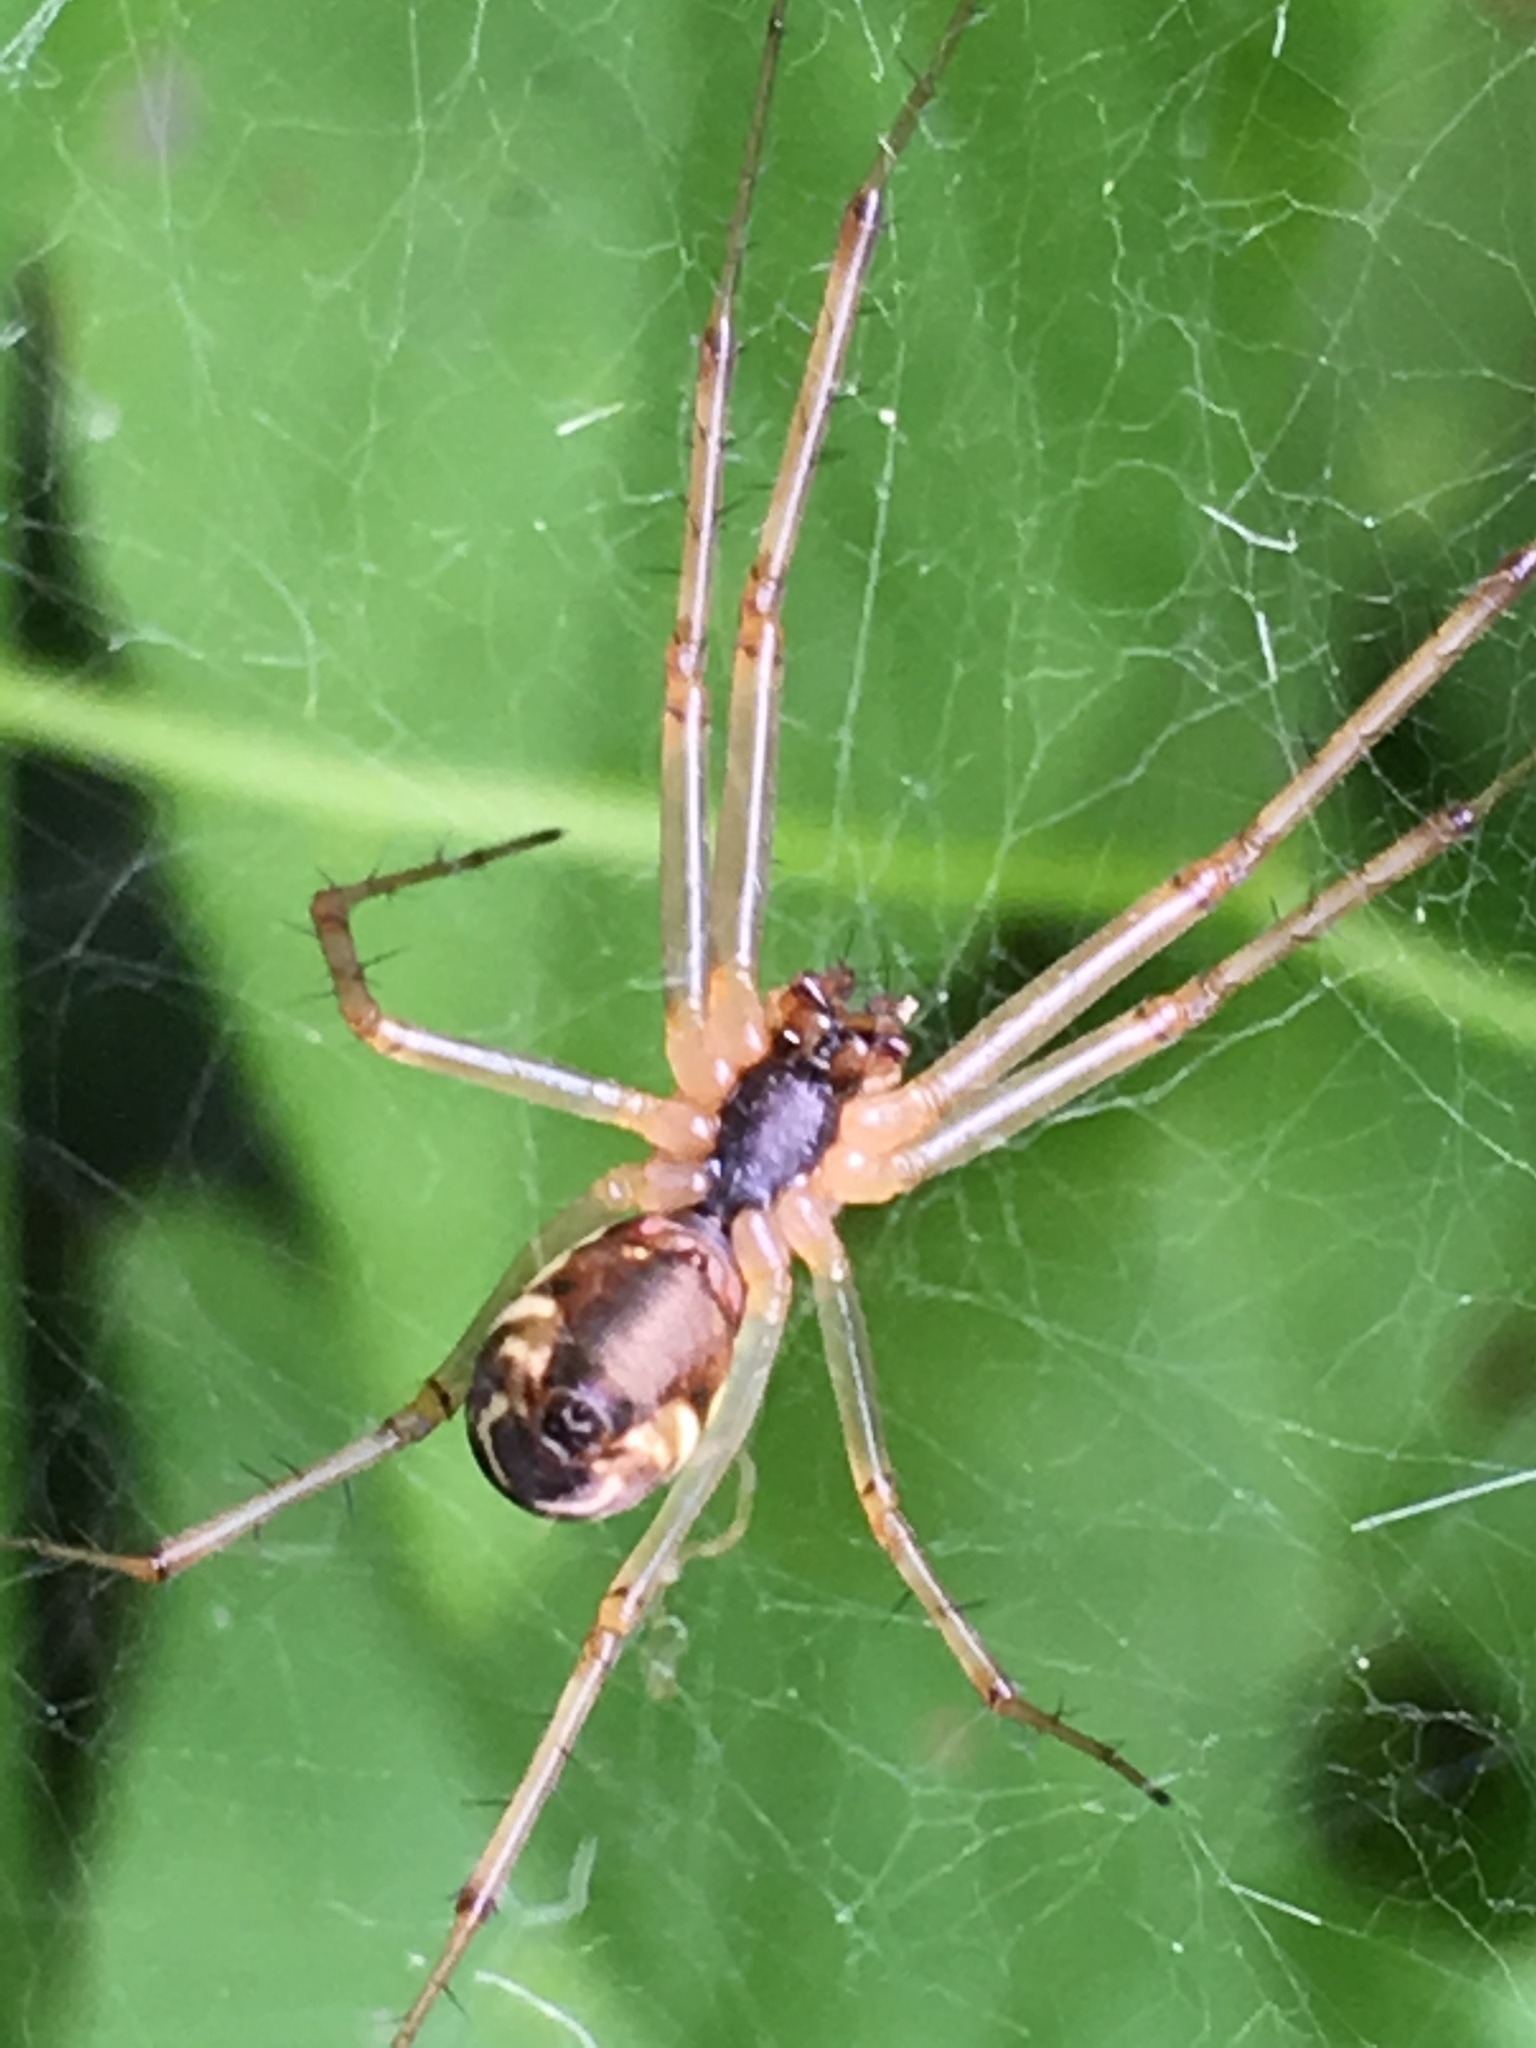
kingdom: Animalia
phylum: Arthropoda
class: Arachnida
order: Araneae
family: Linyphiidae
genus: Linyphia
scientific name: Linyphia triangularis
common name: Money spider
